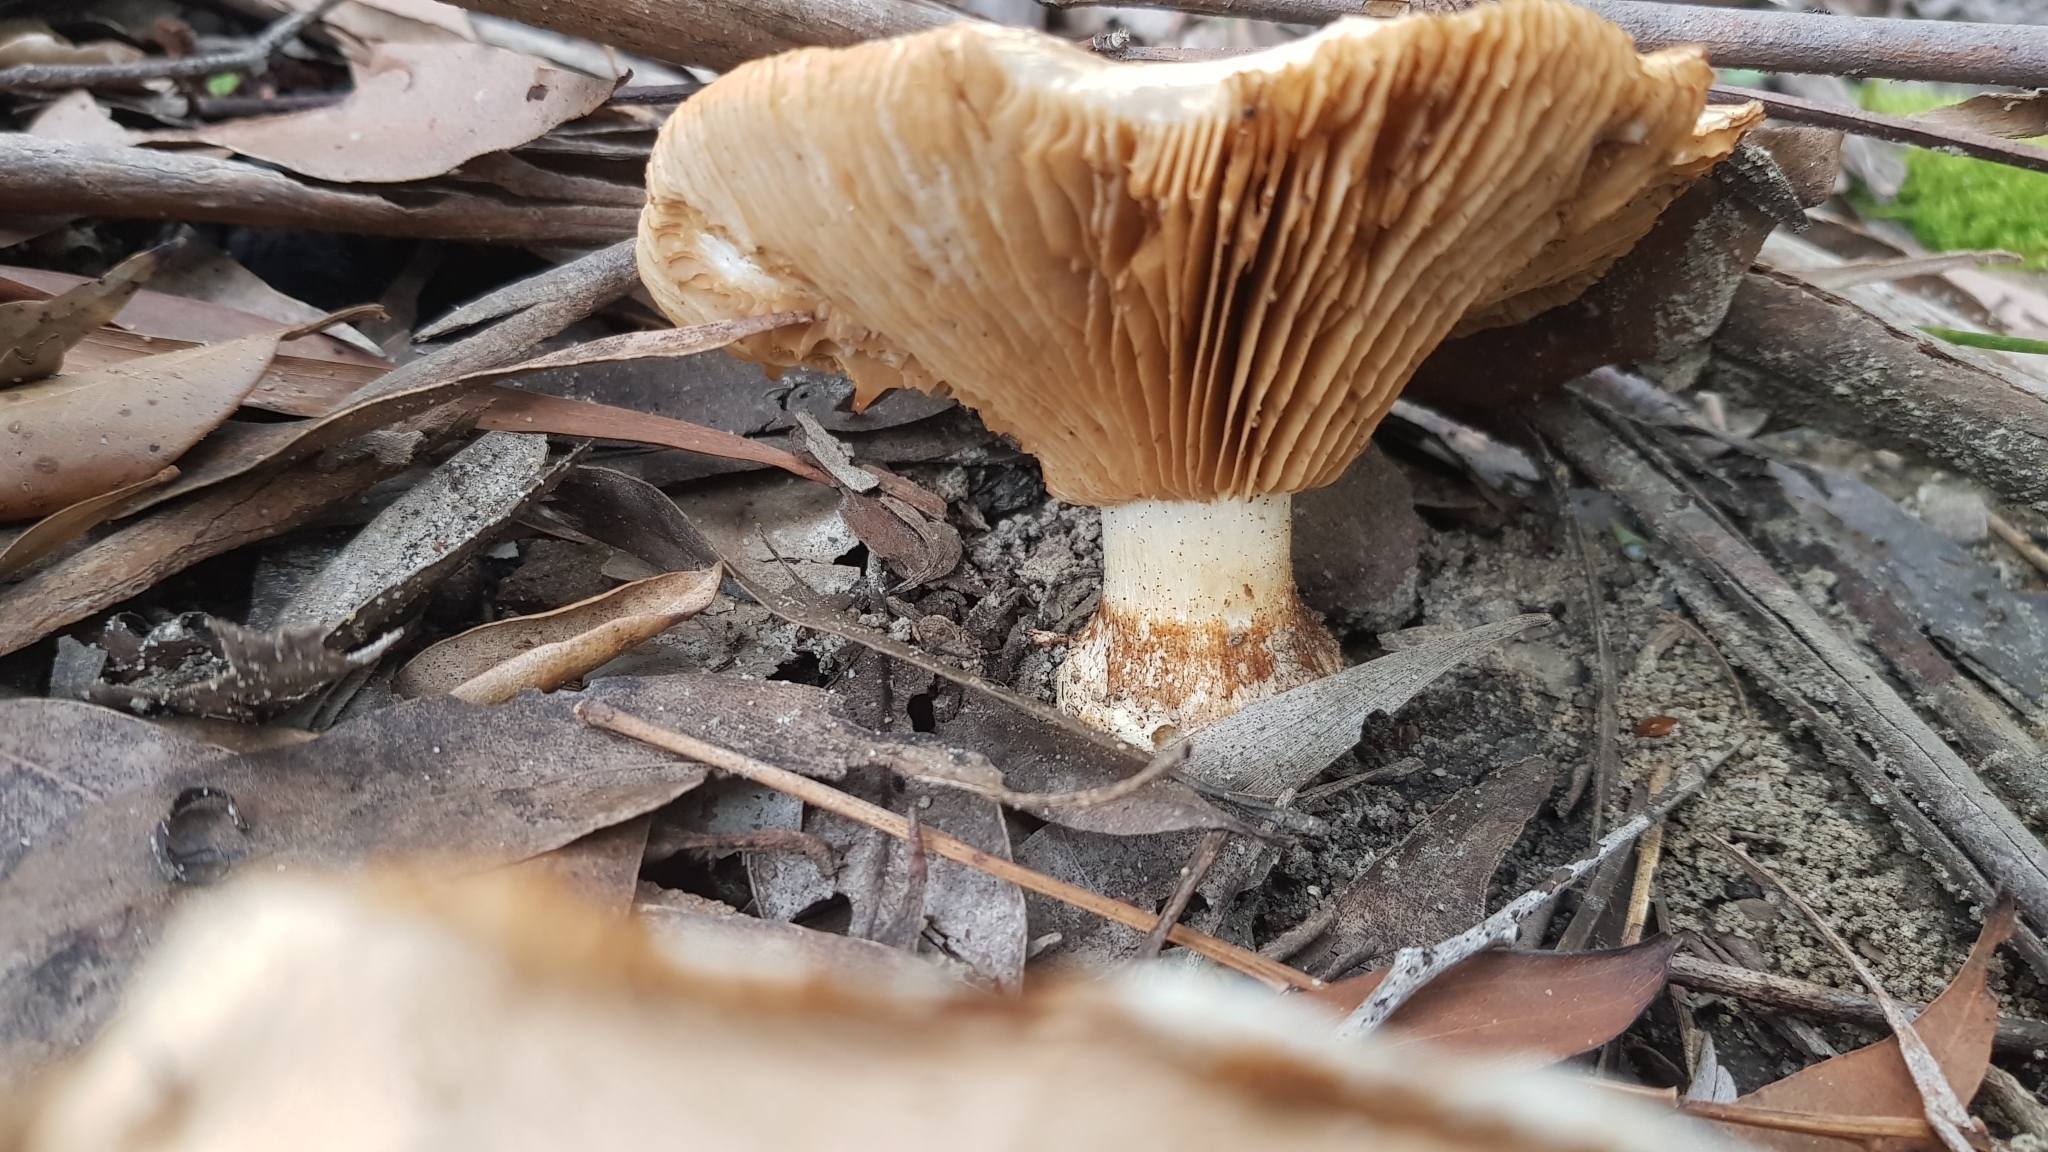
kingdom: Fungi
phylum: Basidiomycota
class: Agaricomycetes
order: Agaricales
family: Cortinariaceae
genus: Austrocortinarius
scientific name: Austrocortinarius australiensis
